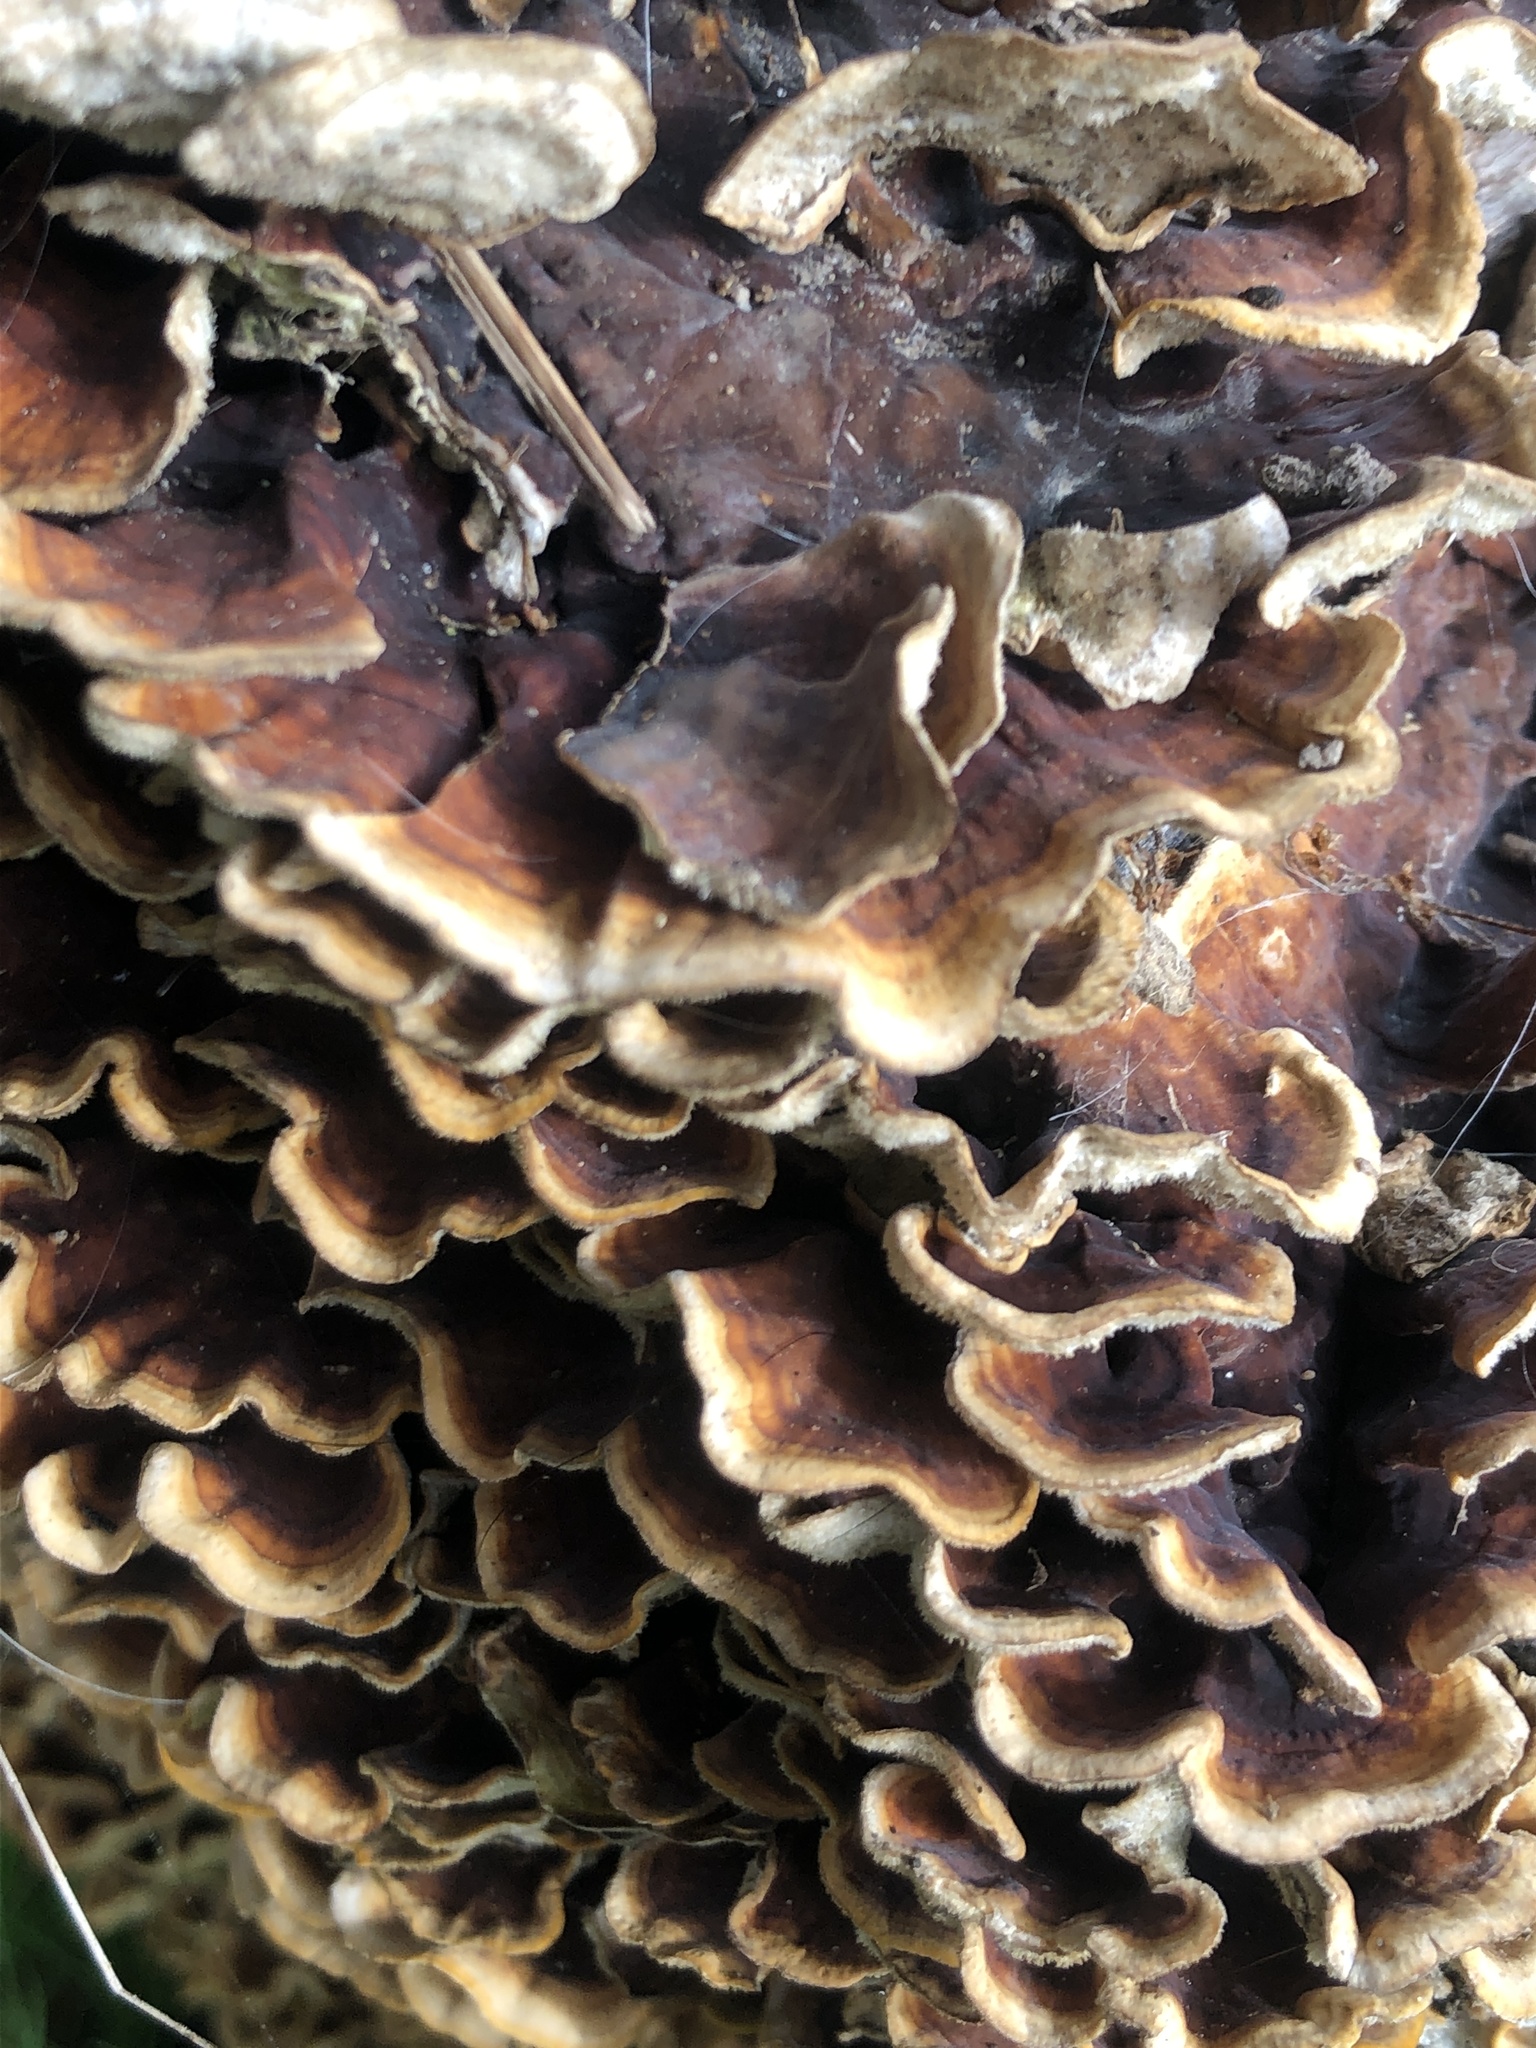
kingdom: Fungi
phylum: Basidiomycota
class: Agaricomycetes
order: Russulales
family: Stereaceae
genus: Stereum
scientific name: Stereum hirsutum
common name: Hairy curtain crust
